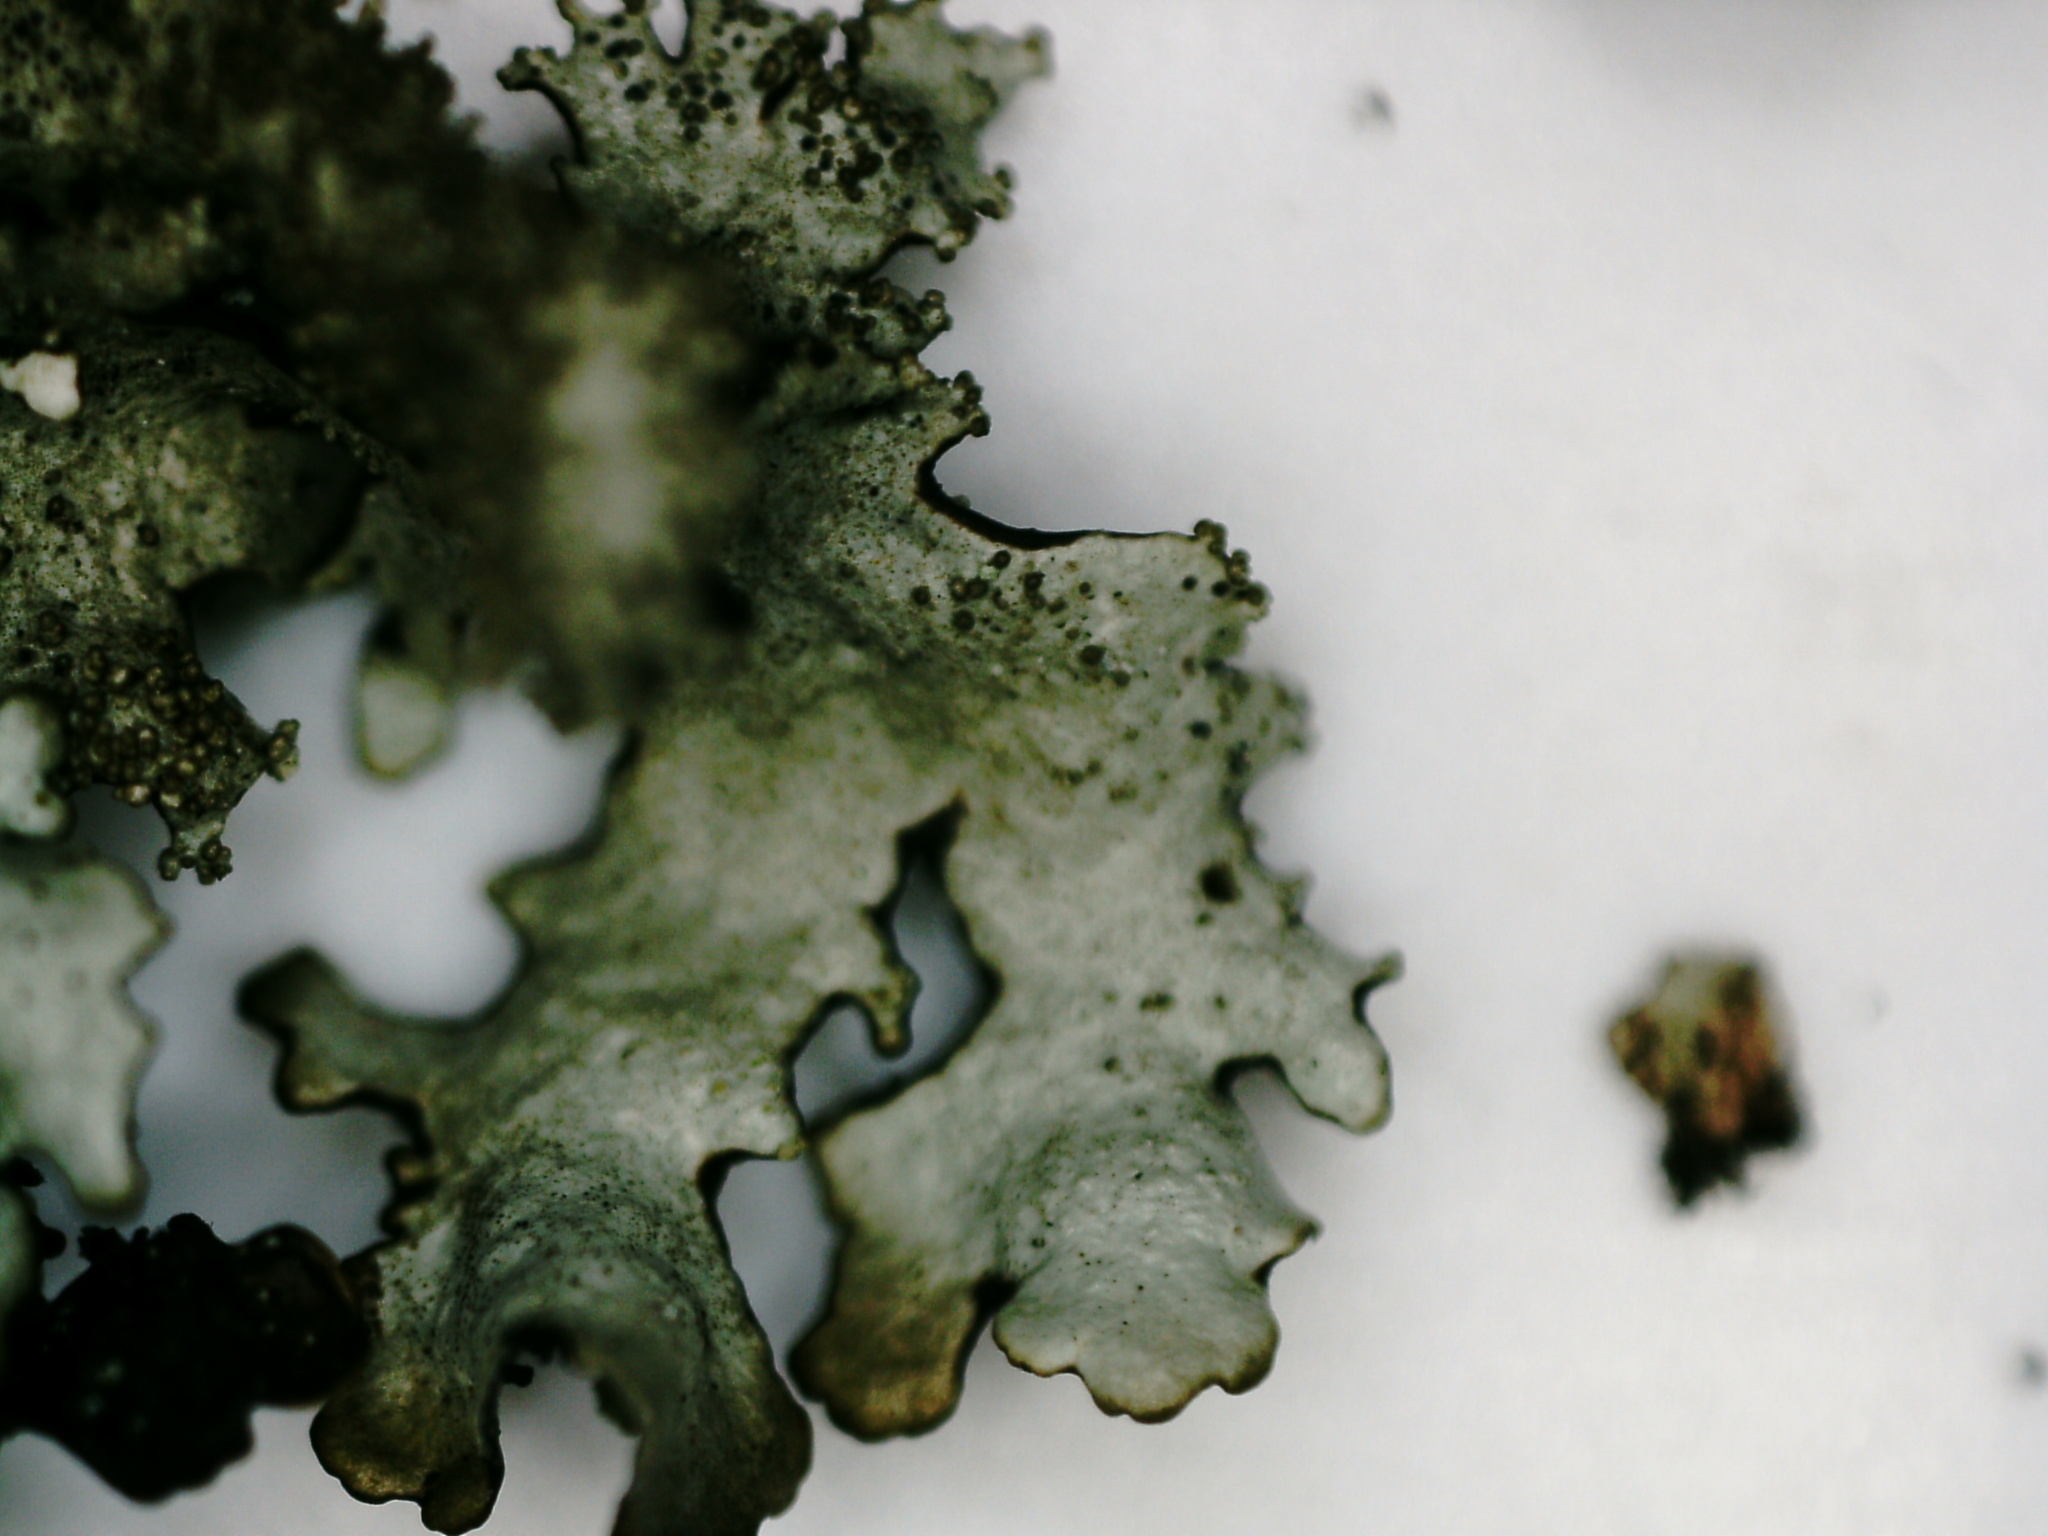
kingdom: Fungi
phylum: Ascomycota
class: Lecanoromycetes
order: Lecanorales
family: Parmeliaceae
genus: Xanthoparmelia
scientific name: Xanthoparmelia conspersa
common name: Peppered rock shield
